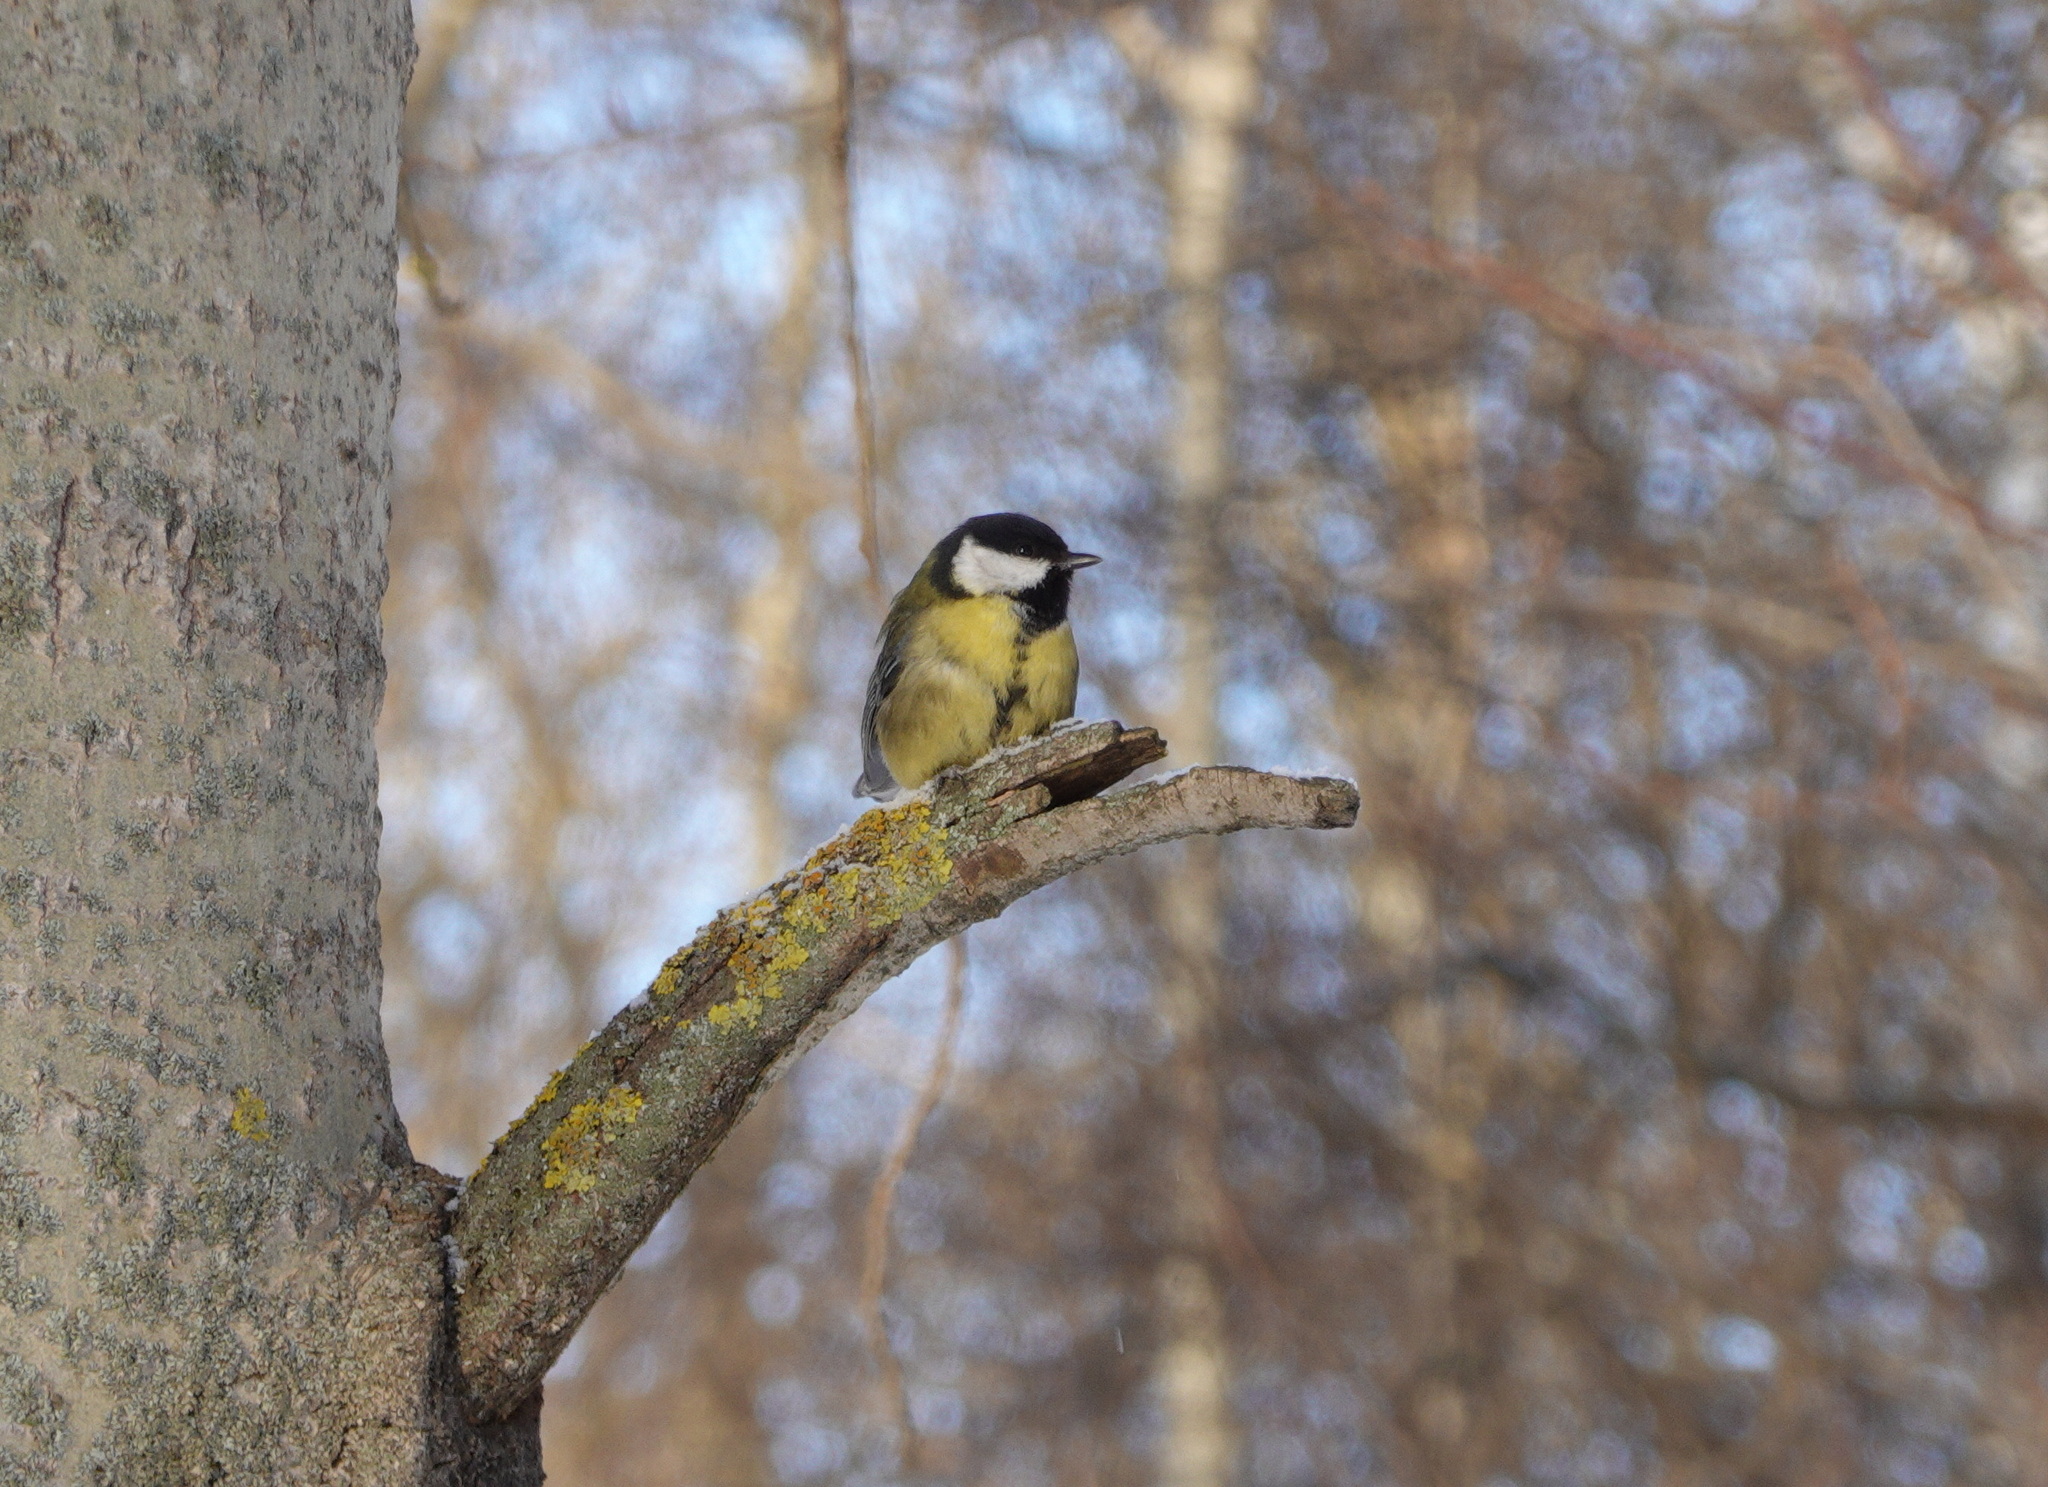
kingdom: Animalia
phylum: Chordata
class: Aves
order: Passeriformes
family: Paridae
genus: Parus
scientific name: Parus major
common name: Great tit
